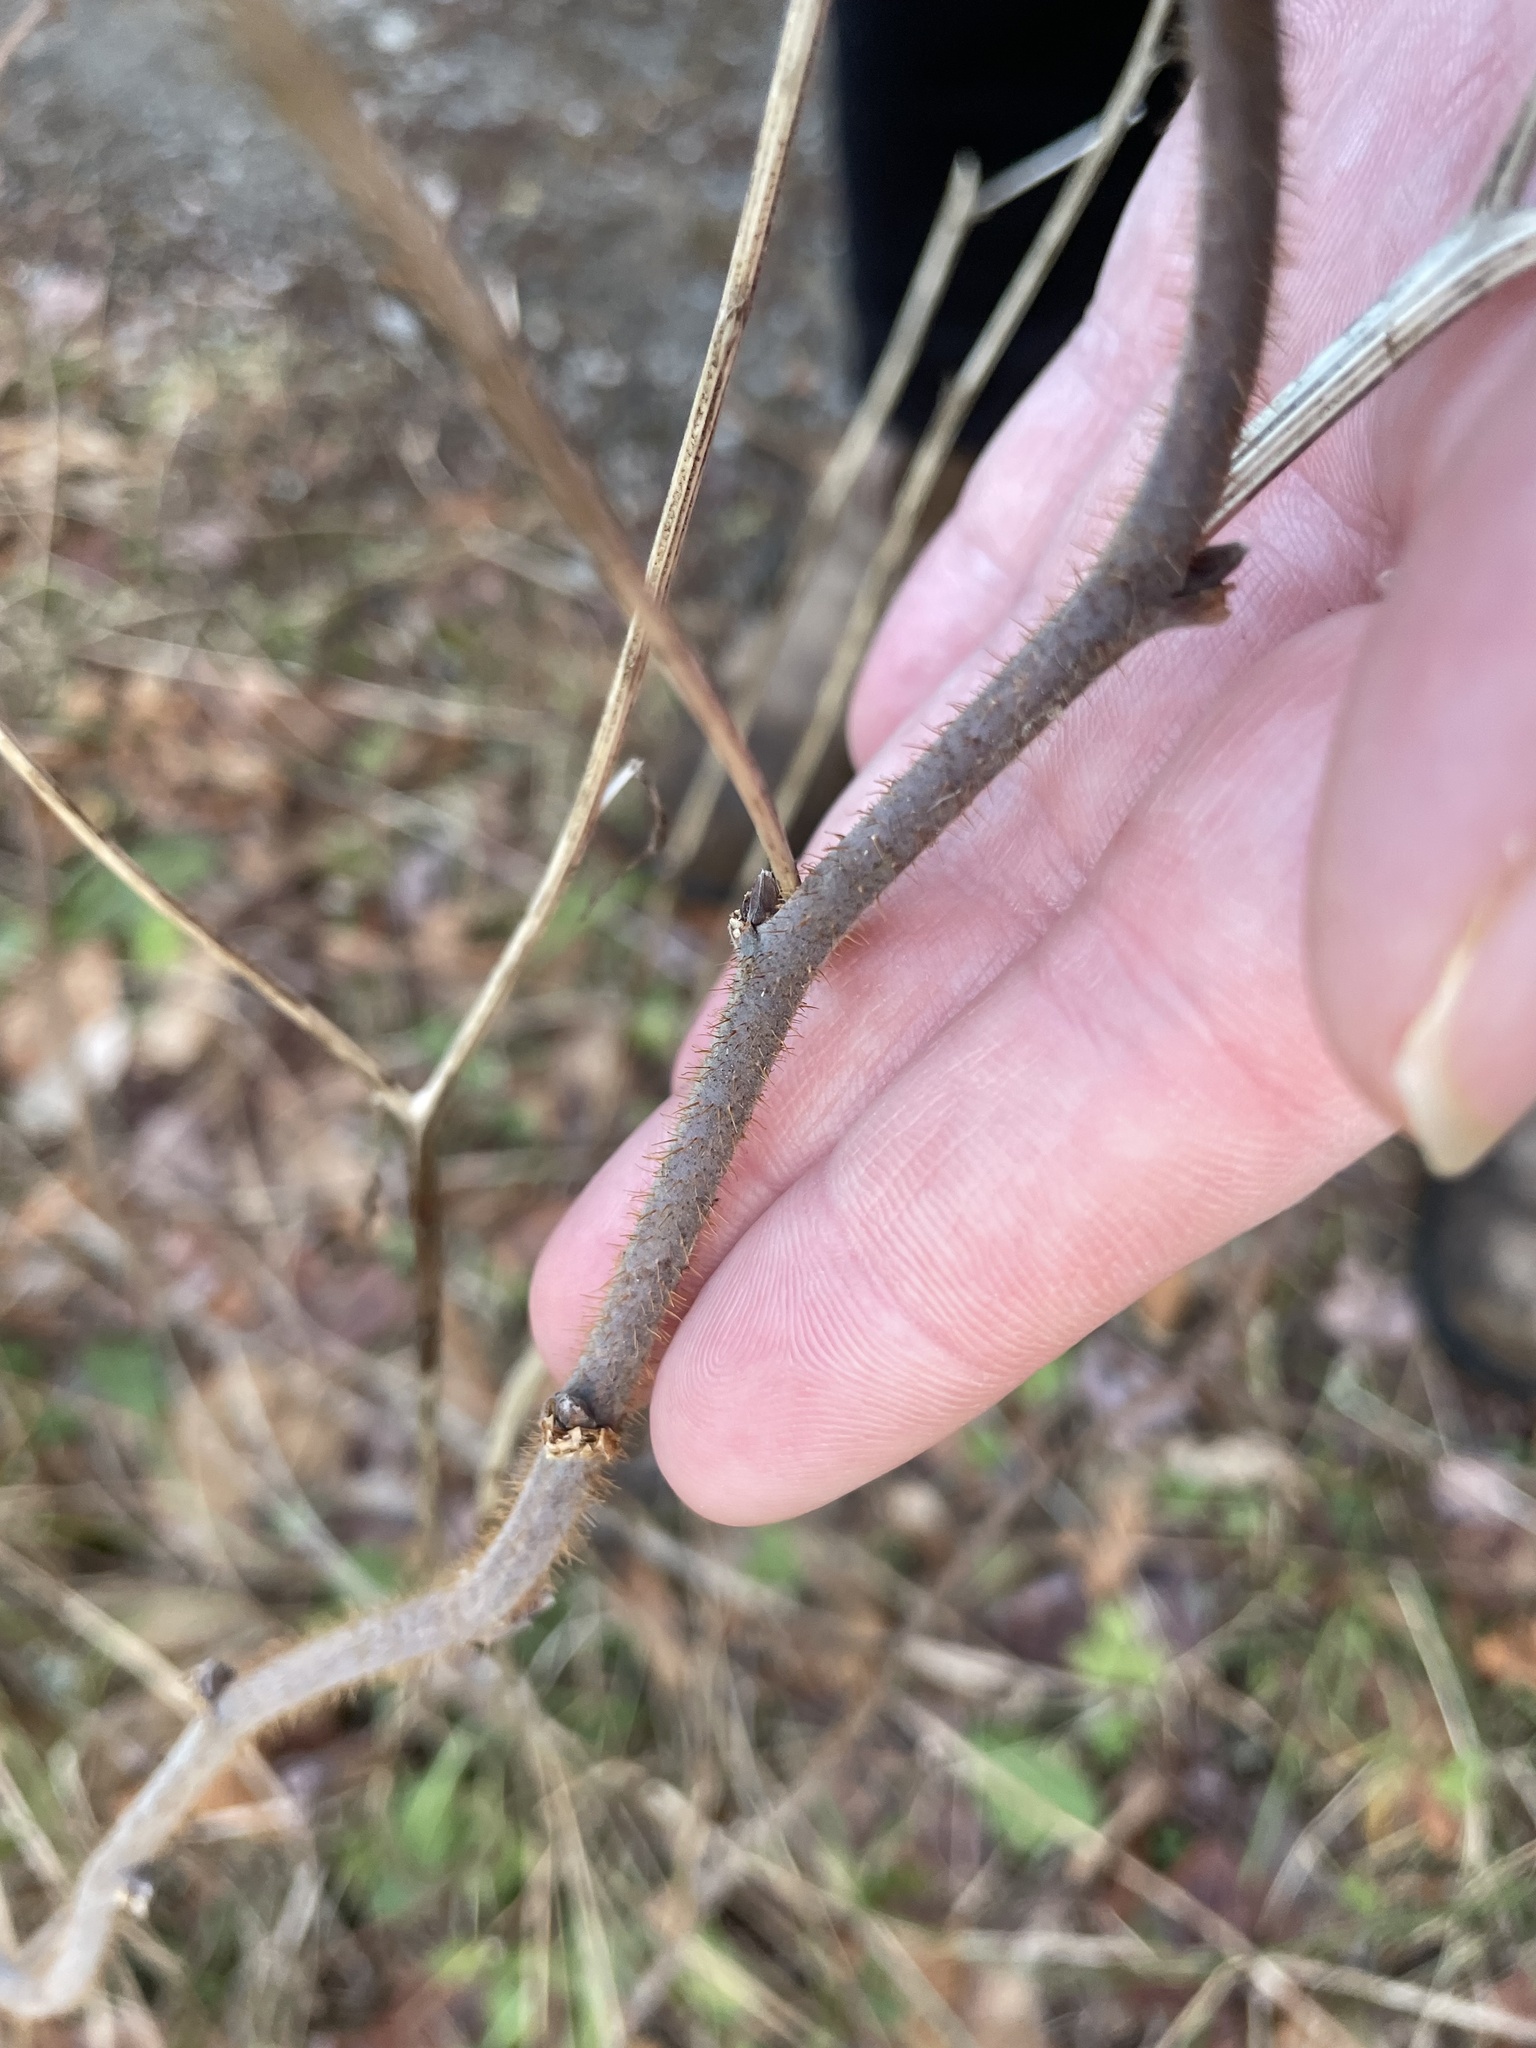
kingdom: Plantae
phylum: Tracheophyta
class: Magnoliopsida
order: Asterales
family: Asteraceae
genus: Centaurea
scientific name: Centaurea nigra
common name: Lesser knapweed
